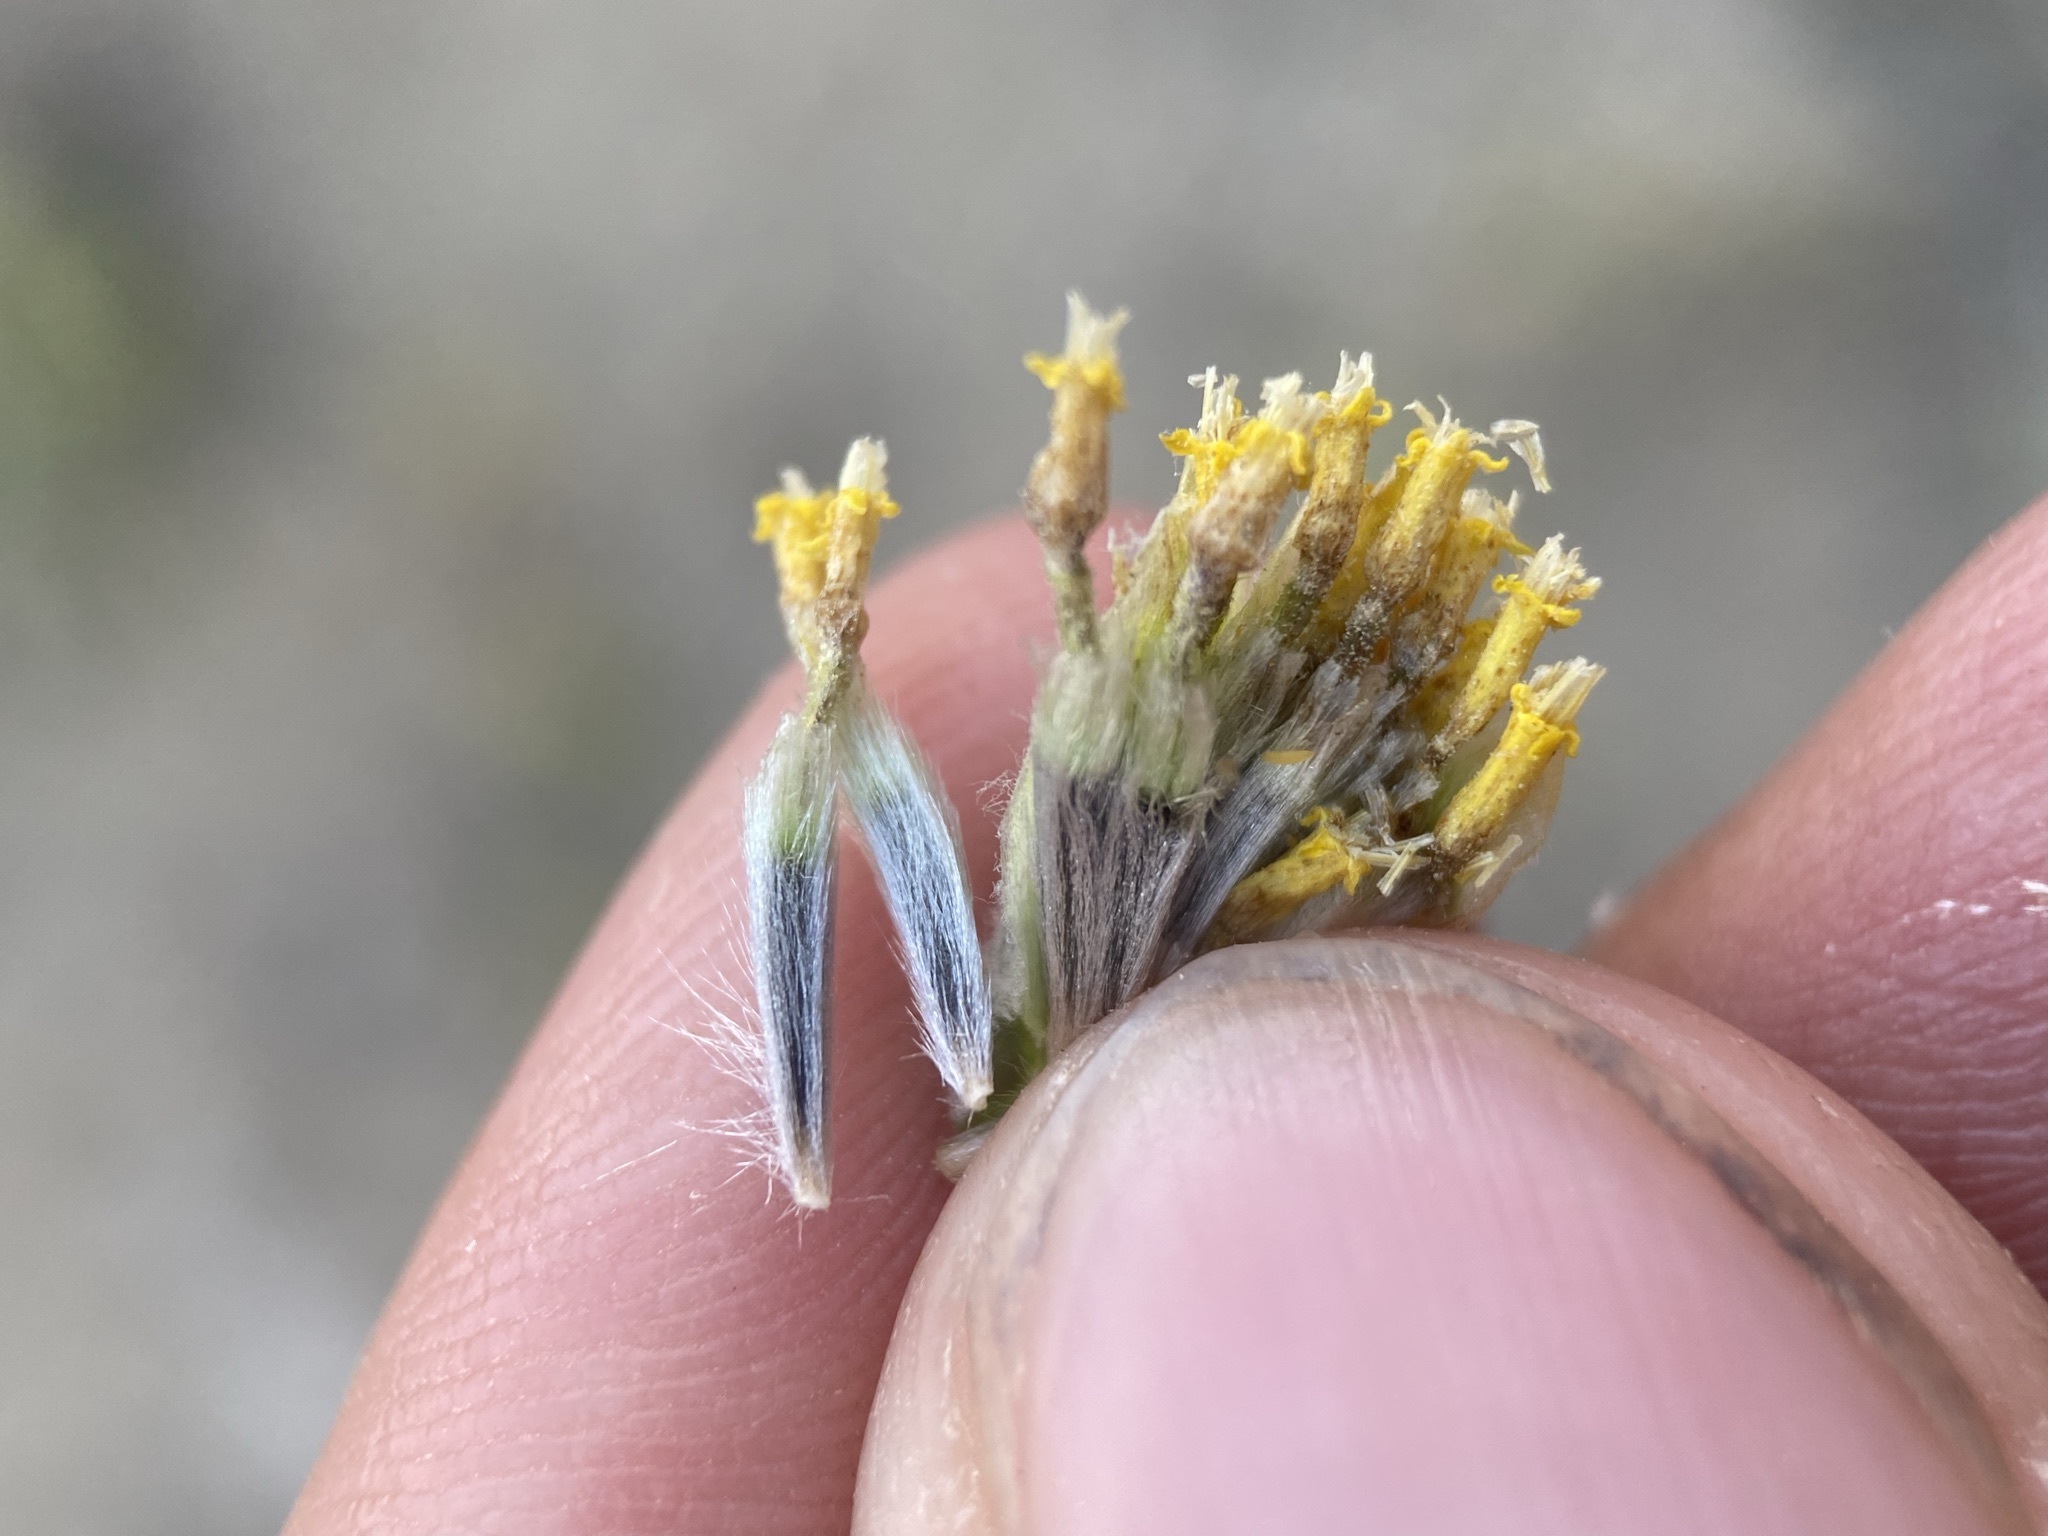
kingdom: Plantae
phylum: Tracheophyta
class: Magnoliopsida
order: Asterales
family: Asteraceae
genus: Hymenopappus
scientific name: Hymenopappus filifolius
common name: Columbia cutleaf
